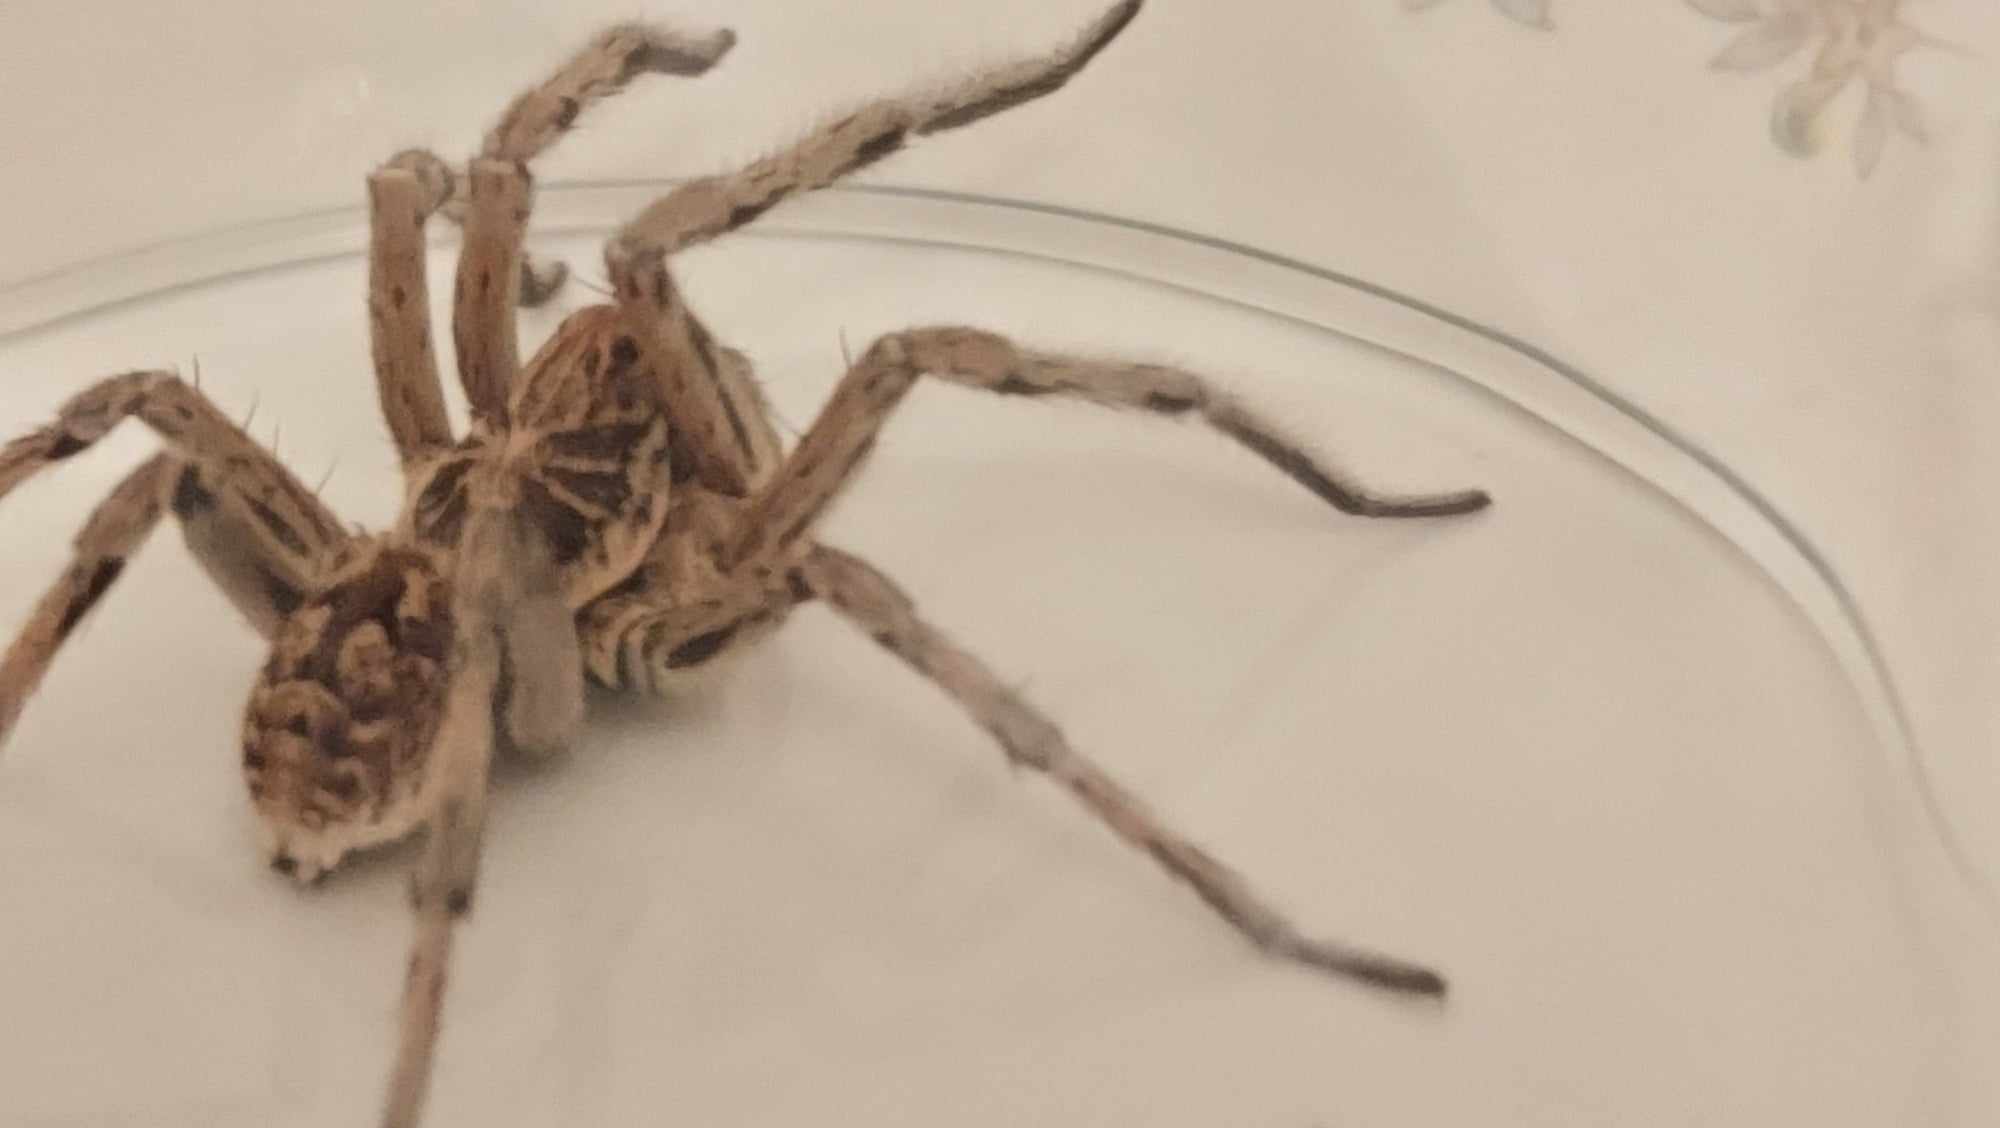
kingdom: Animalia
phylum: Arthropoda
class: Arachnida
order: Araneae
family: Lycosidae
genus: Geolycosa
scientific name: Geolycosa vultuosa
